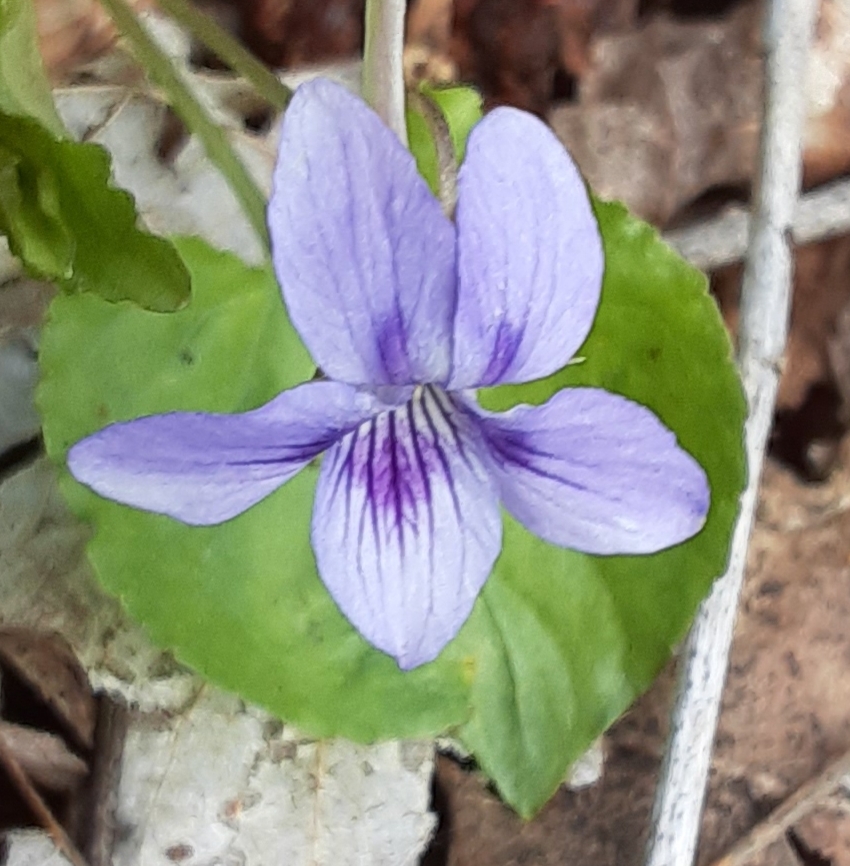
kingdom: Plantae
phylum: Tracheophyta
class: Magnoliopsida
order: Malpighiales
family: Violaceae
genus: Viola
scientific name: Viola rostrata
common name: Long-spur violet
